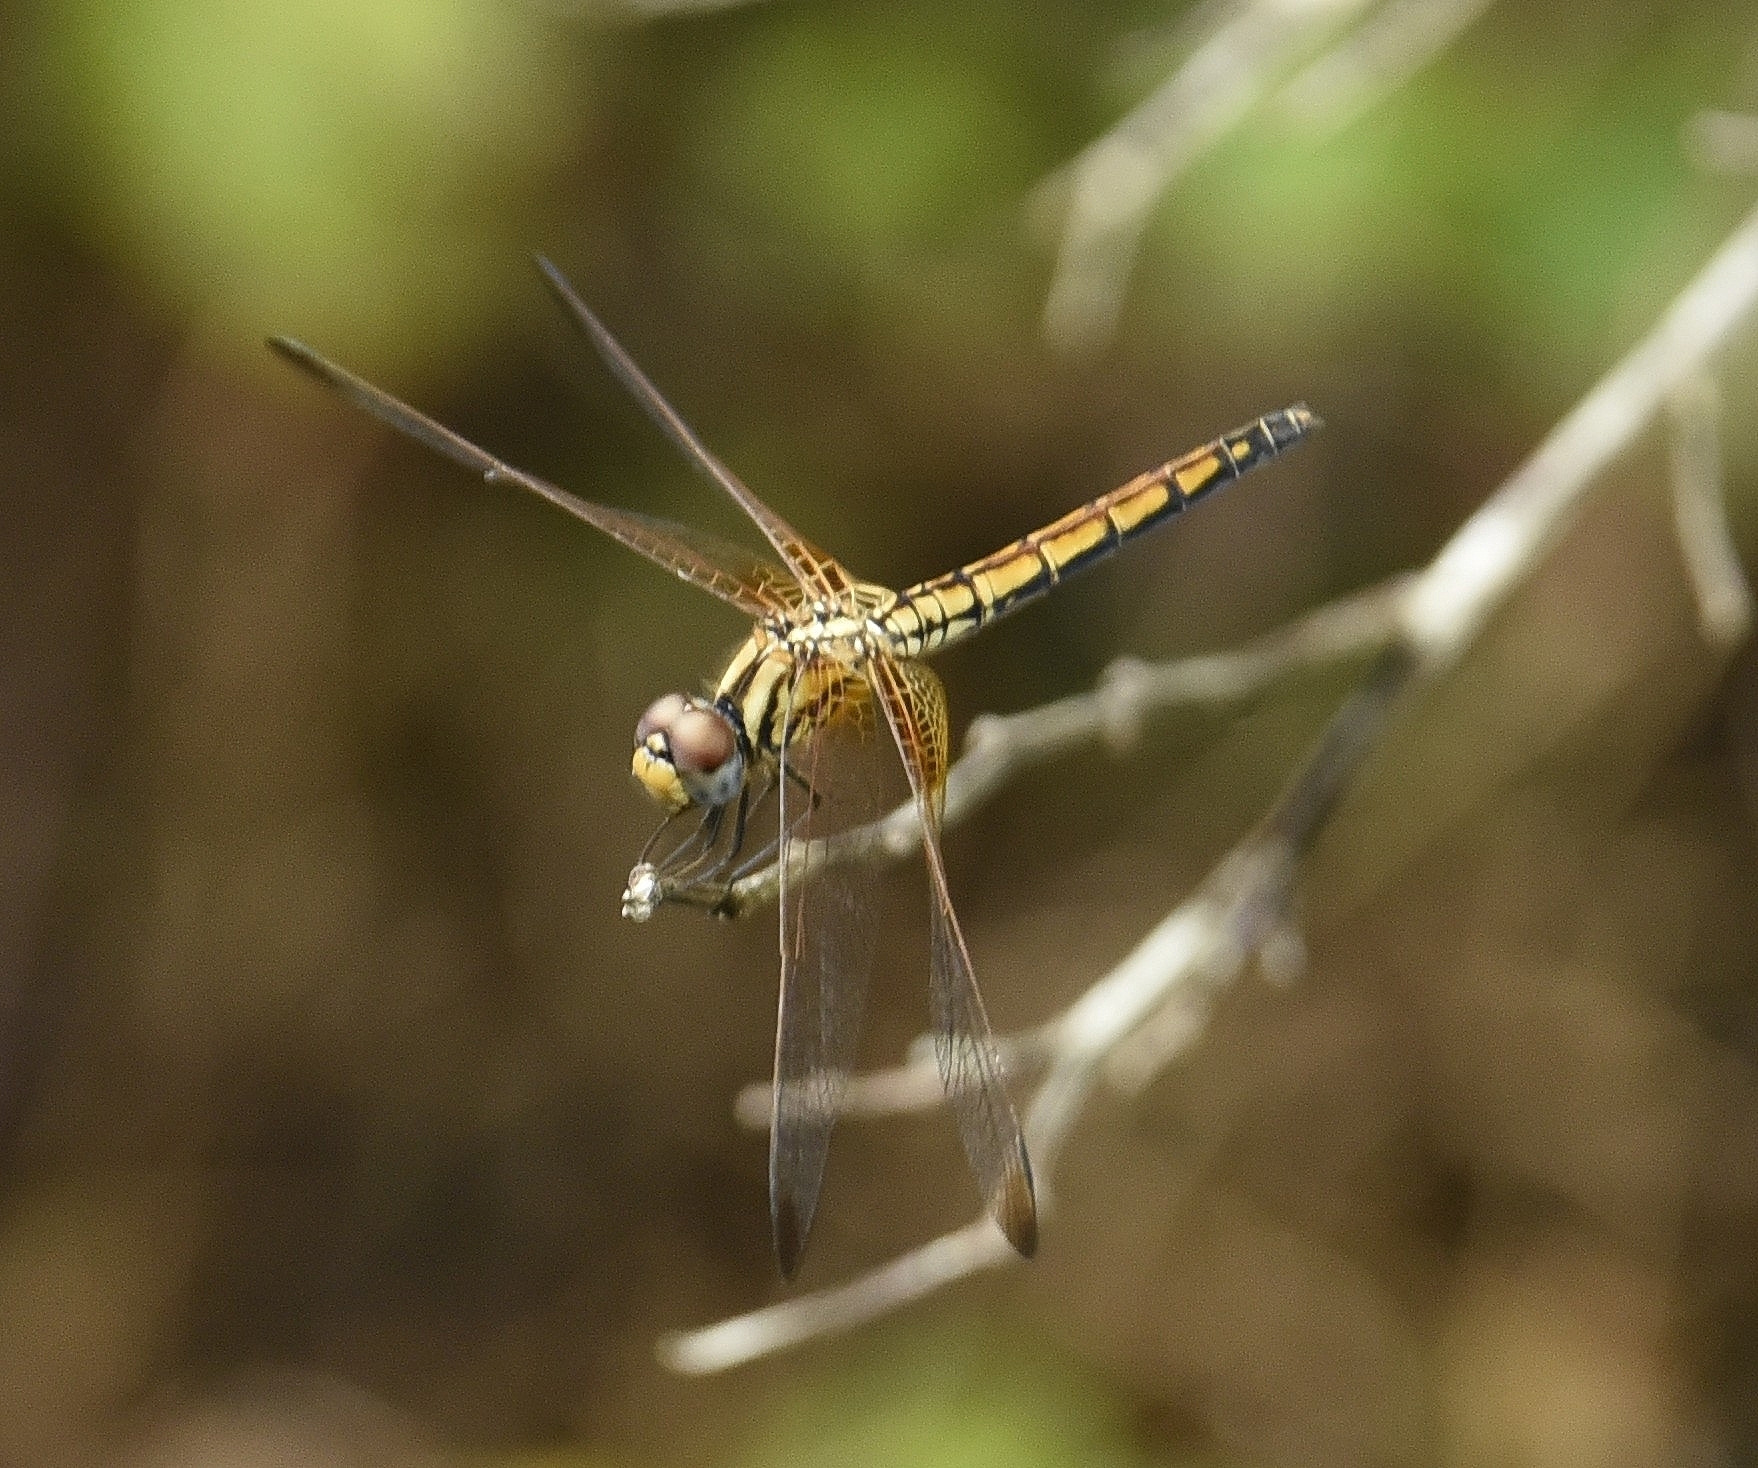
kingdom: Animalia
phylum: Arthropoda
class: Insecta
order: Odonata
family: Libellulidae
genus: Trithemis
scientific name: Trithemis aurora
